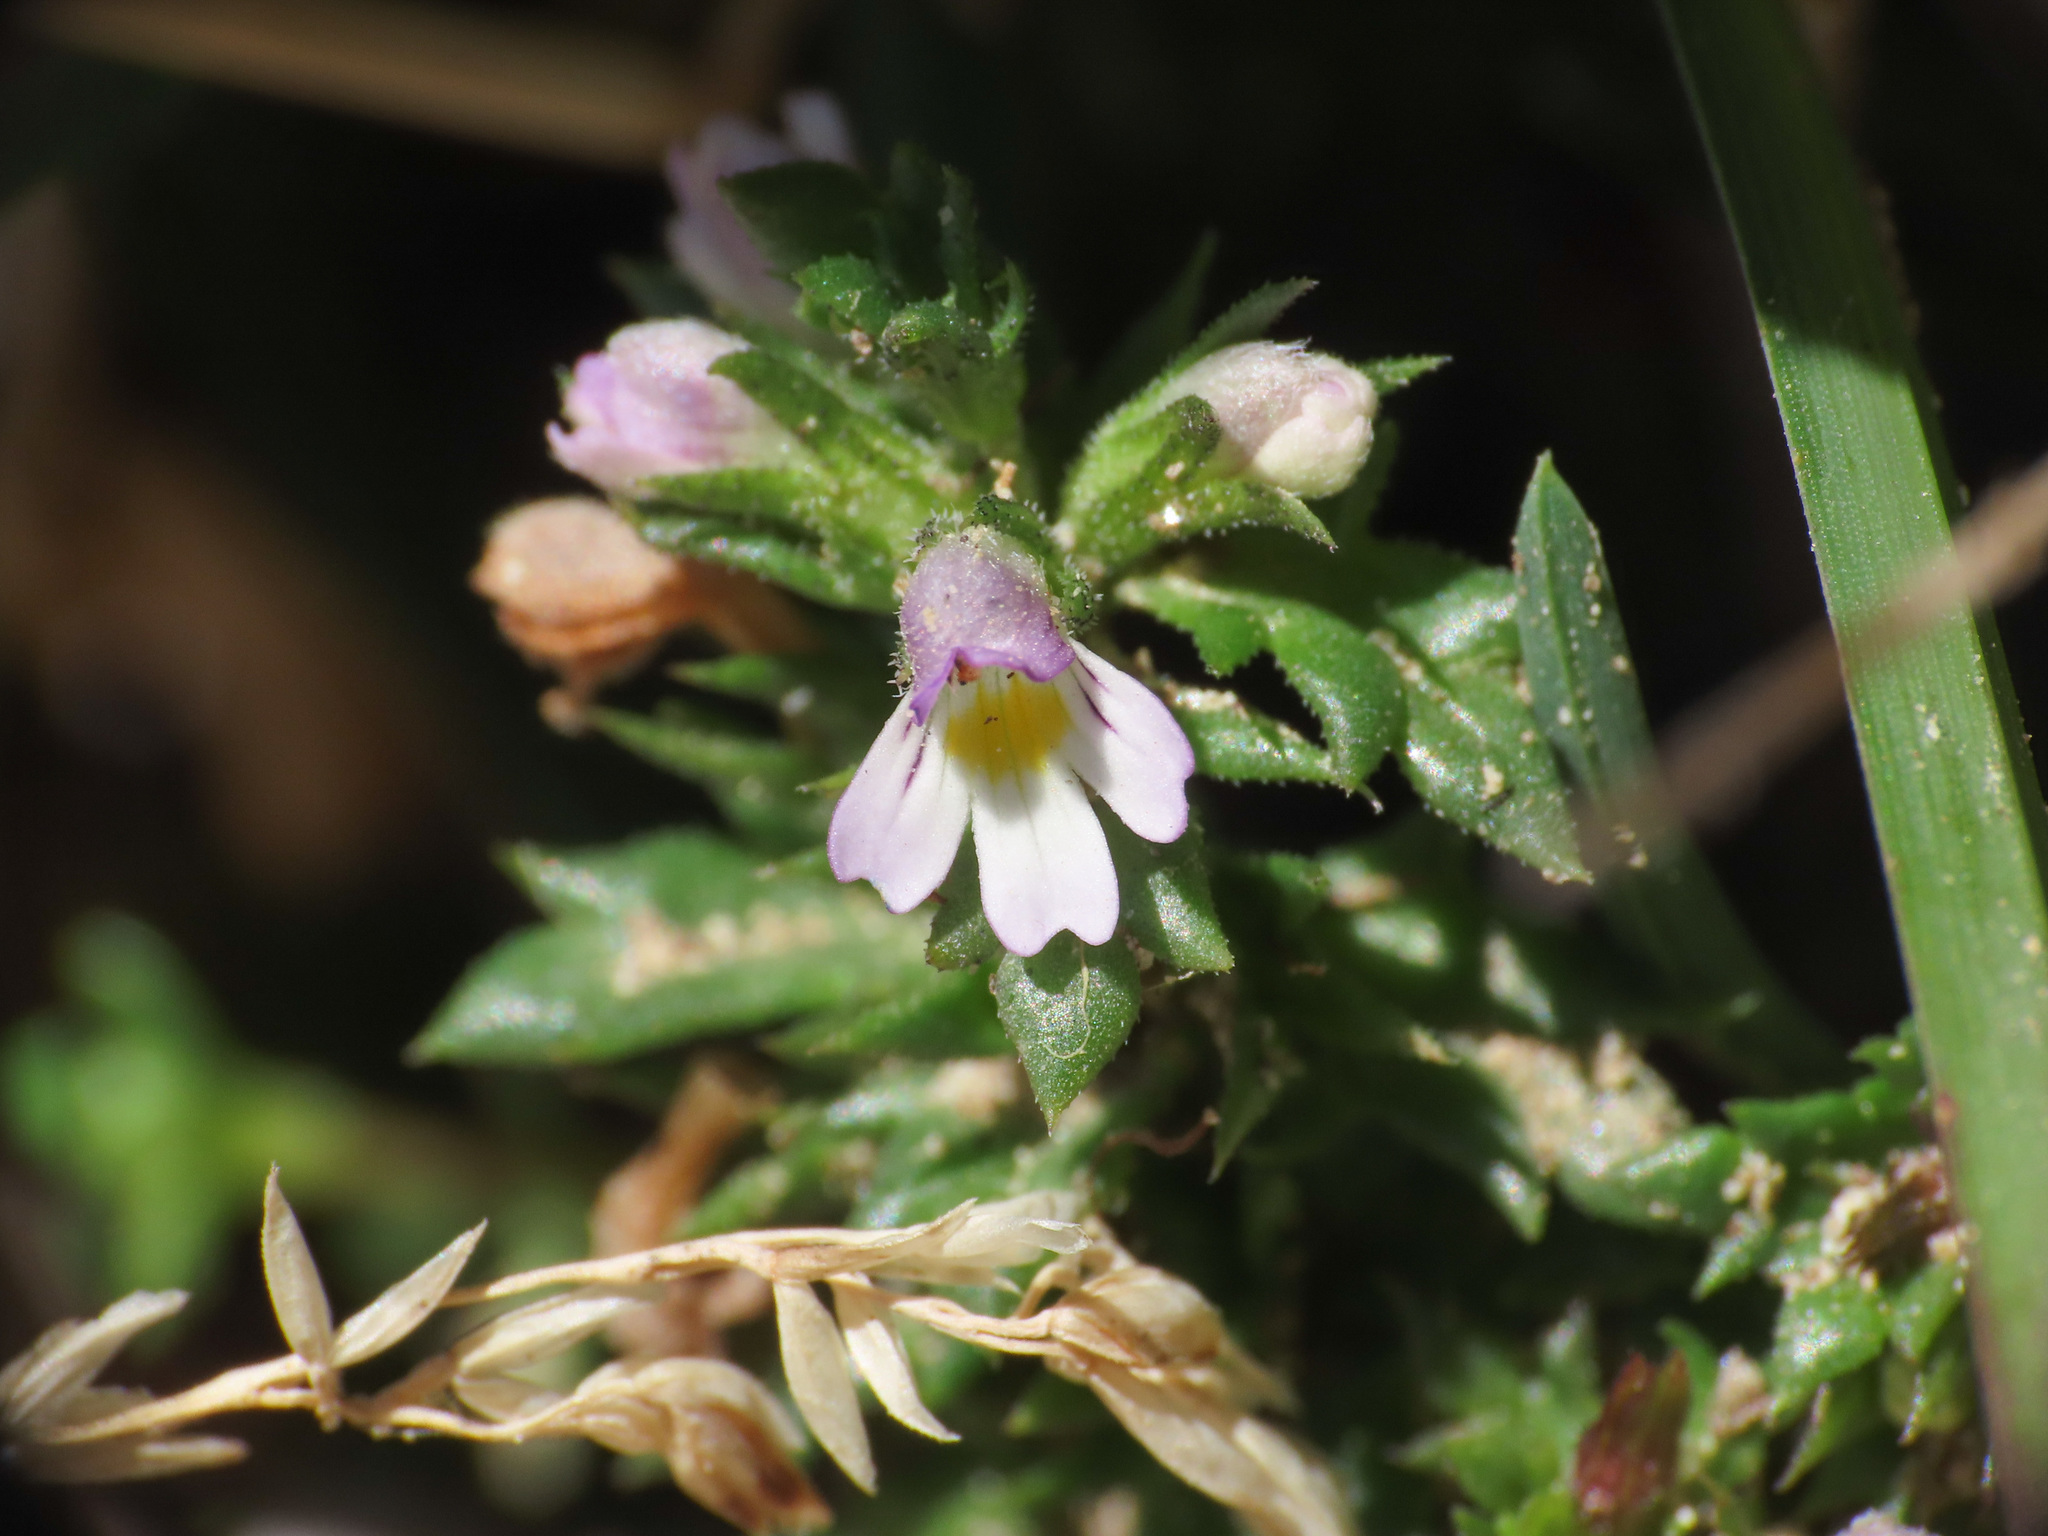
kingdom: Plantae
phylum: Tracheophyta
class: Magnoliopsida
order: Lamiales
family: Orobanchaceae
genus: Euphrasia
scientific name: Euphrasia liburnica
